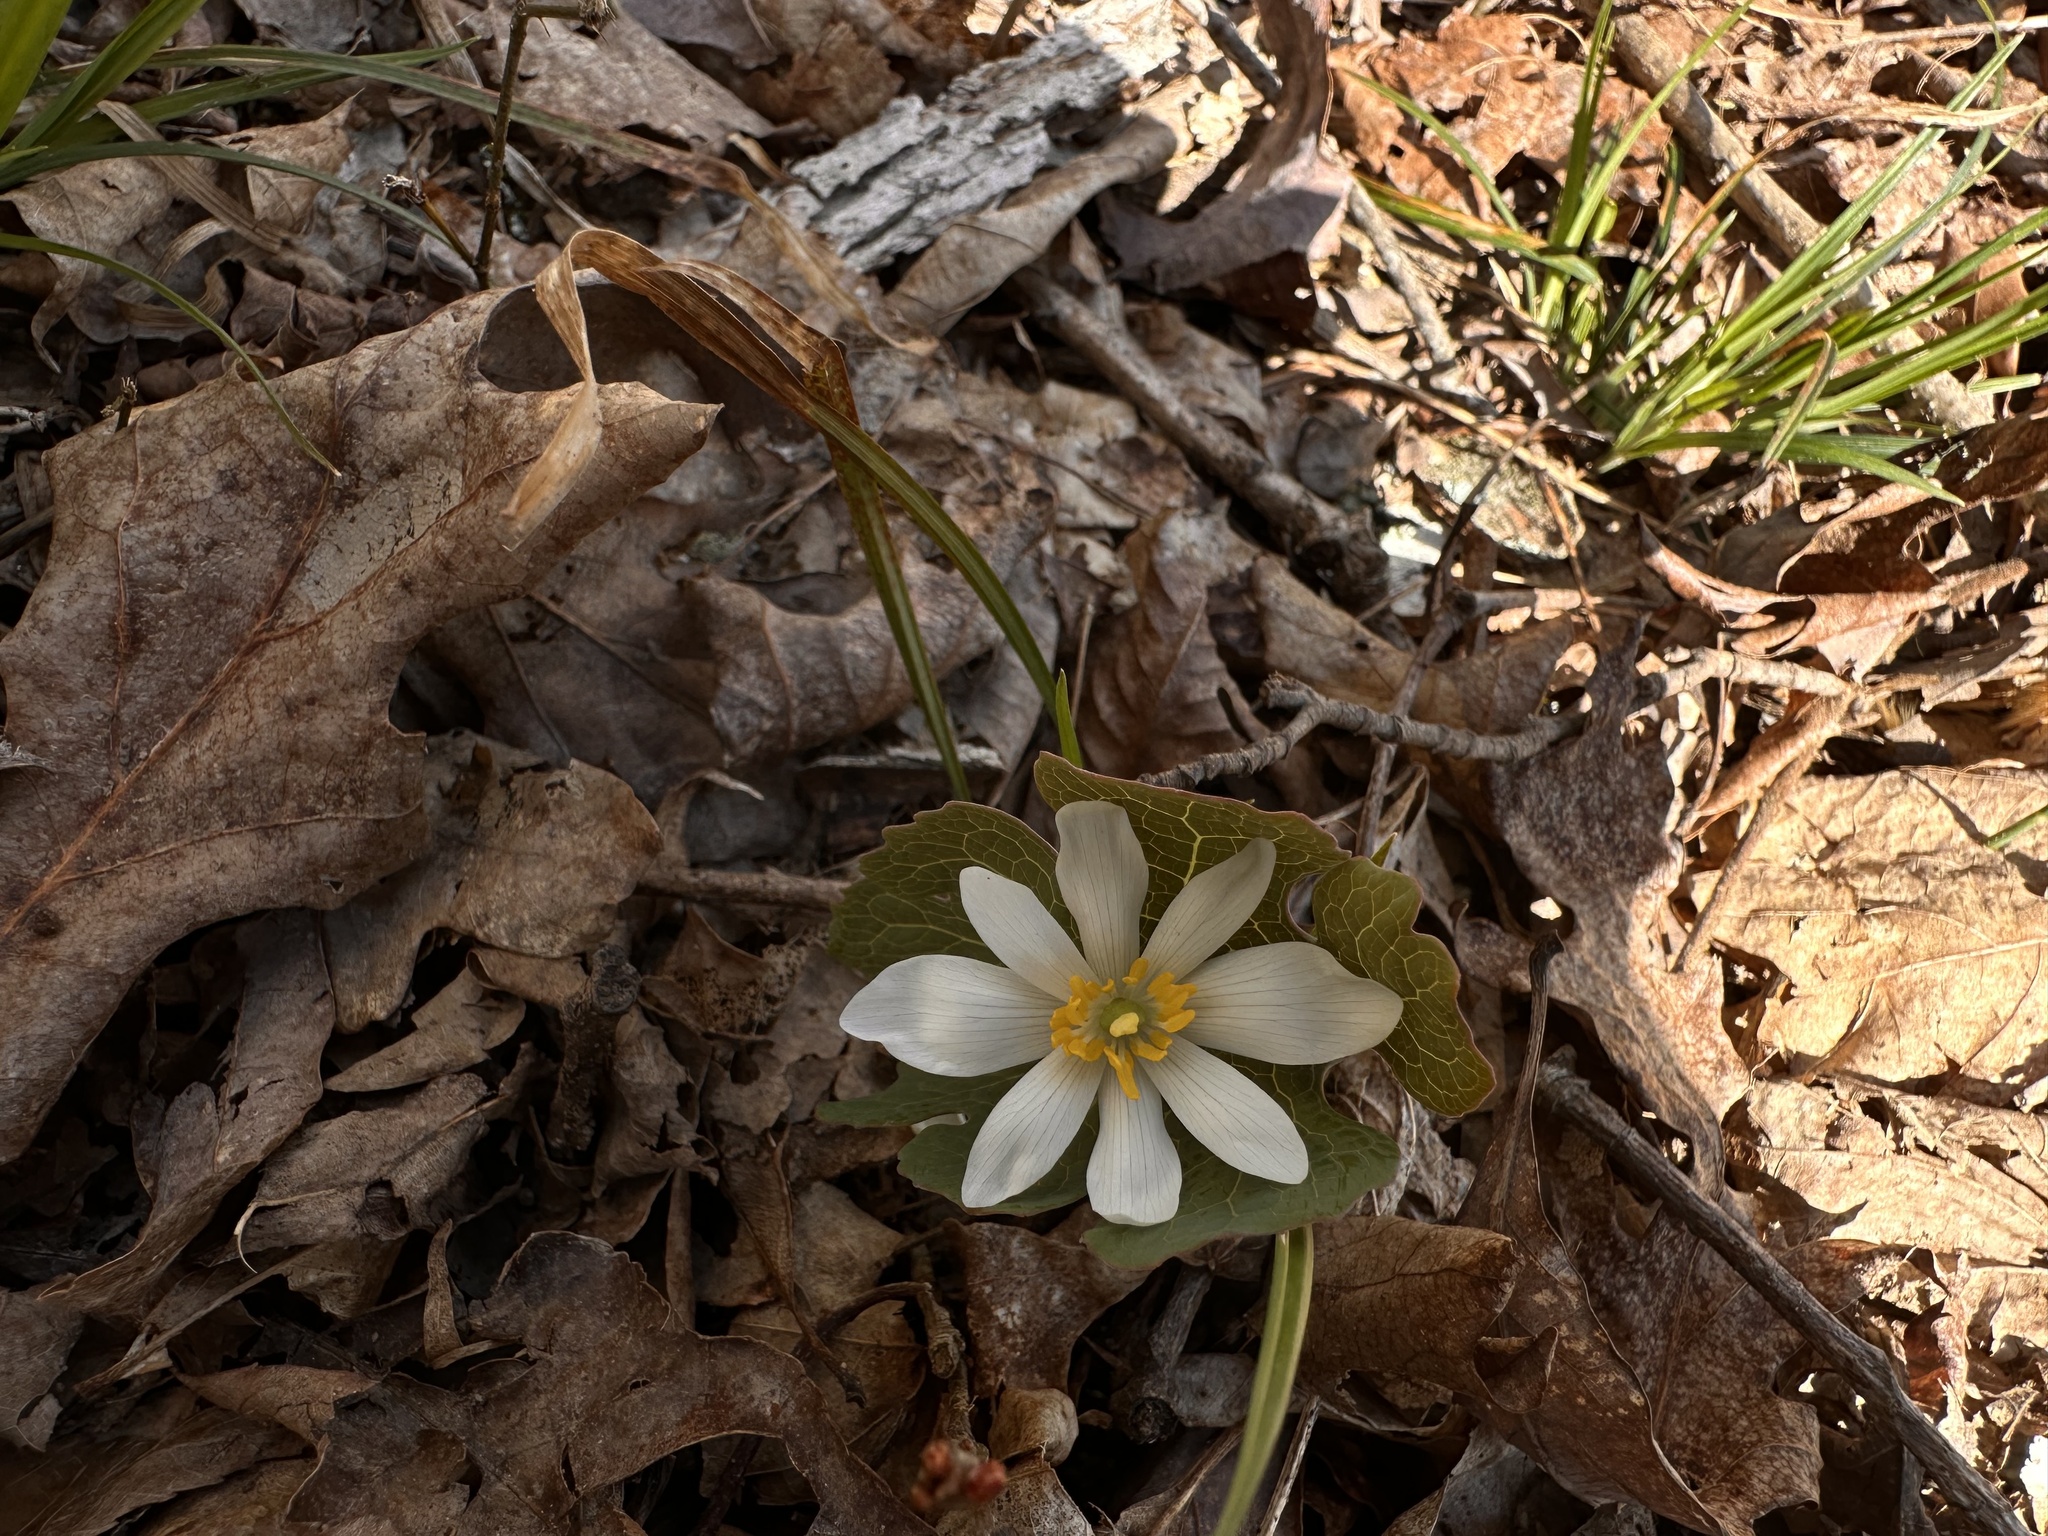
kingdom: Plantae
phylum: Tracheophyta
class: Magnoliopsida
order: Ranunculales
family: Papaveraceae
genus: Sanguinaria
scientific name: Sanguinaria canadensis
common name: Bloodroot
